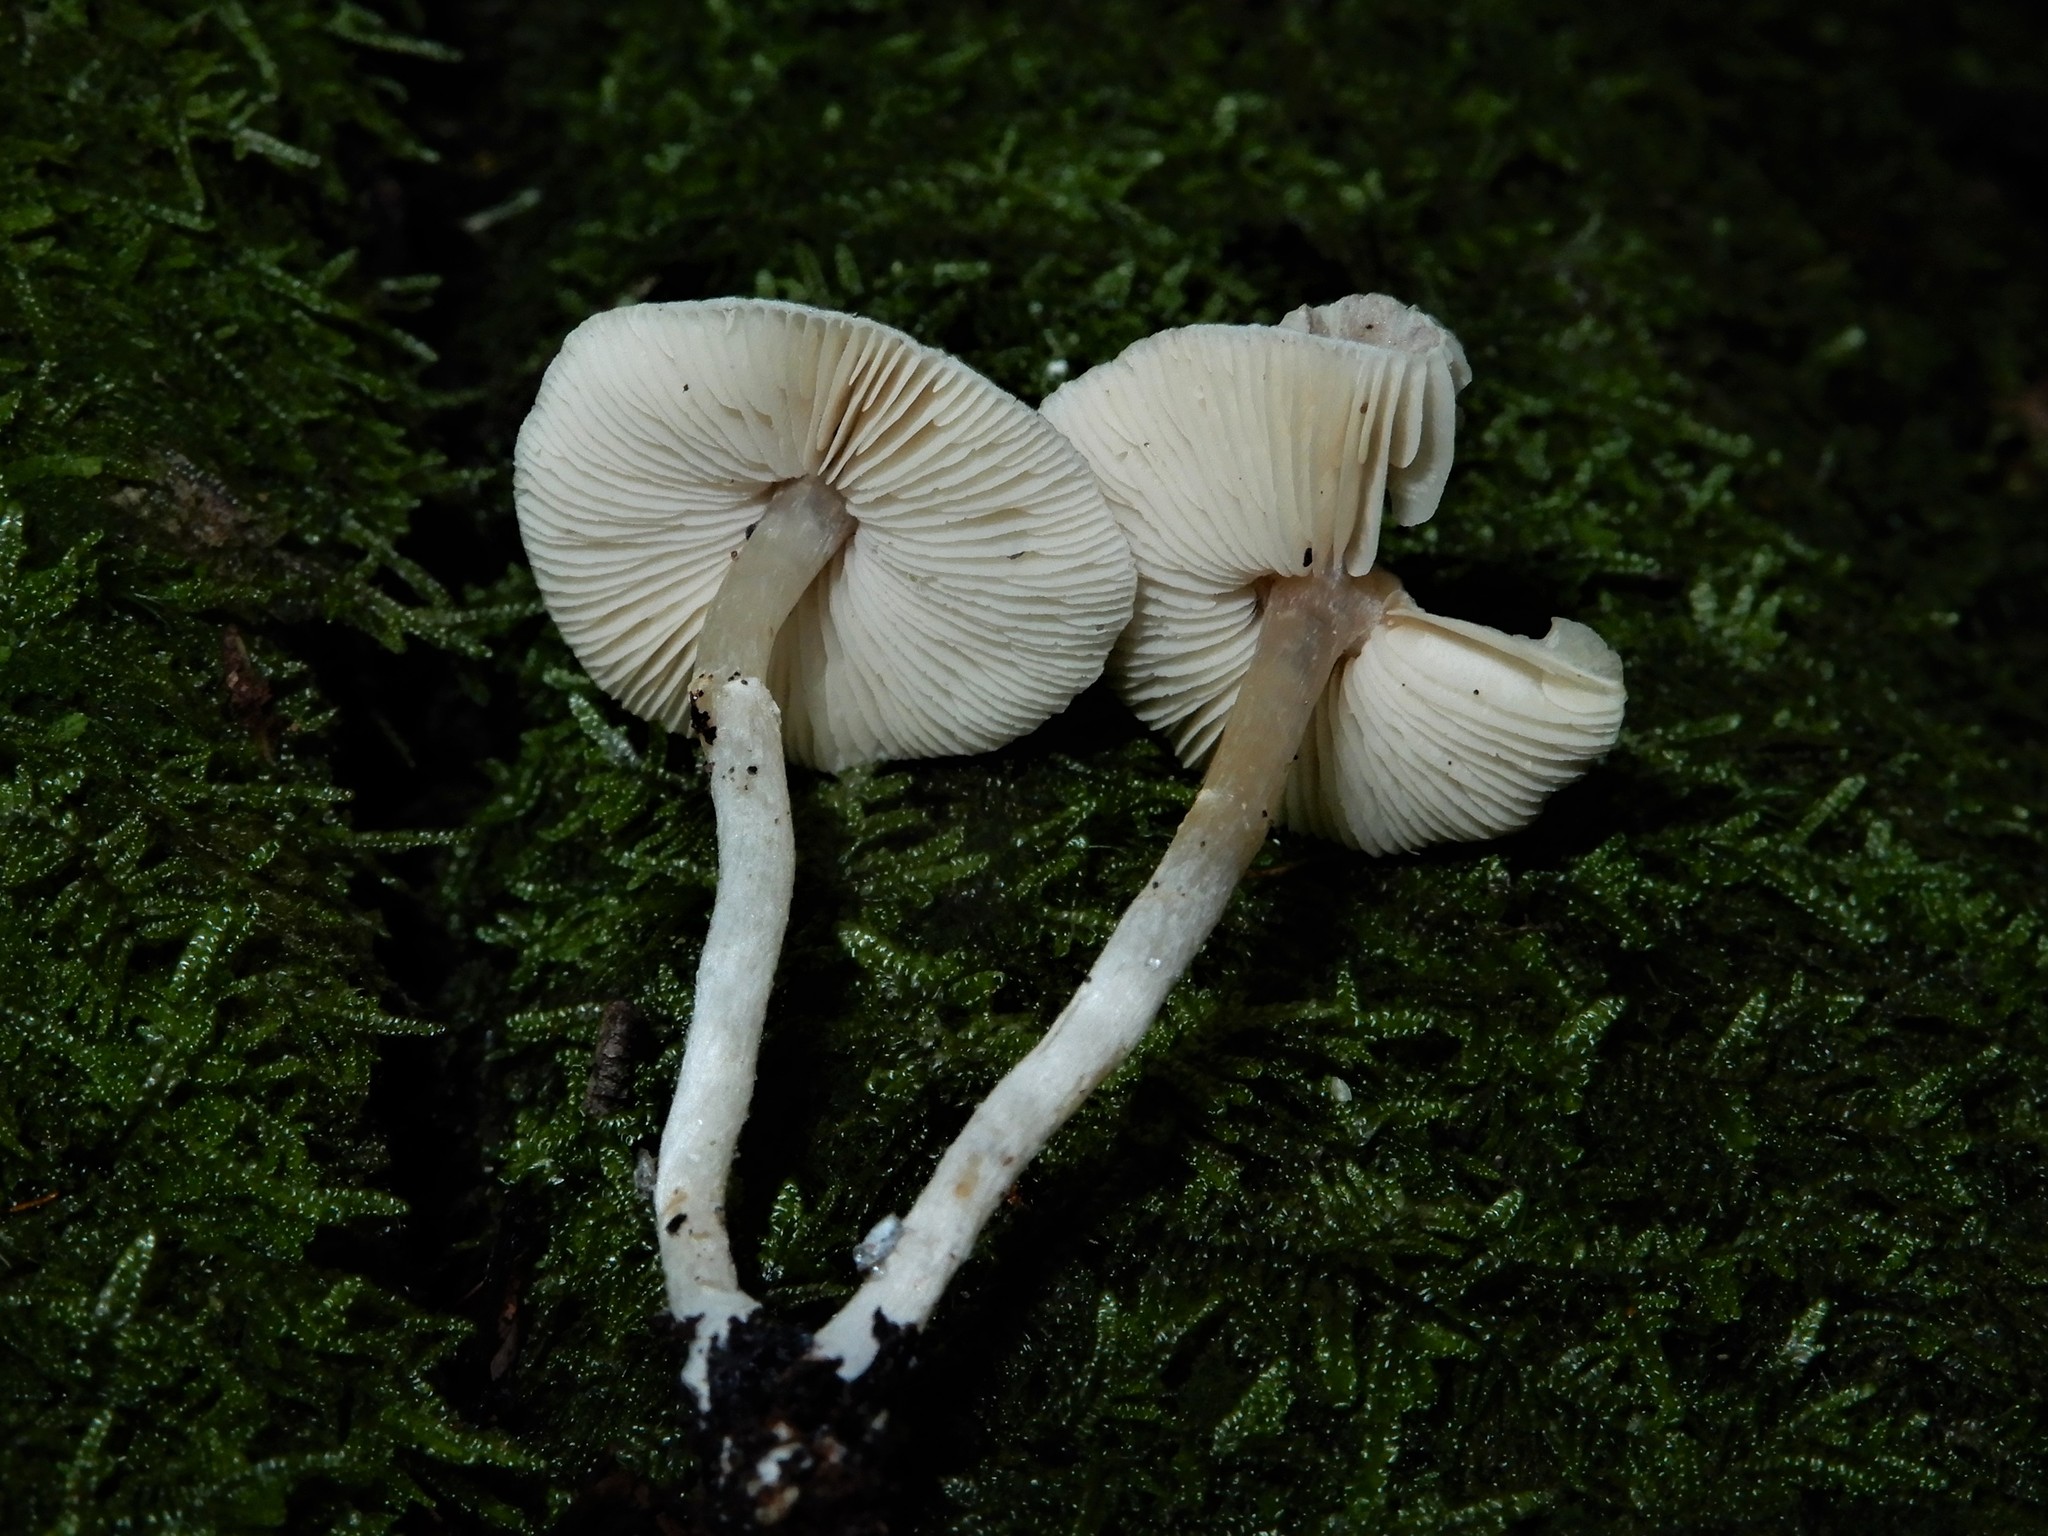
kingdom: Fungi
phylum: Basidiomycota
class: Agaricomycetes
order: Agaricales
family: Agaricaceae
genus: Leucoagaricus
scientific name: Leucoagaricus
